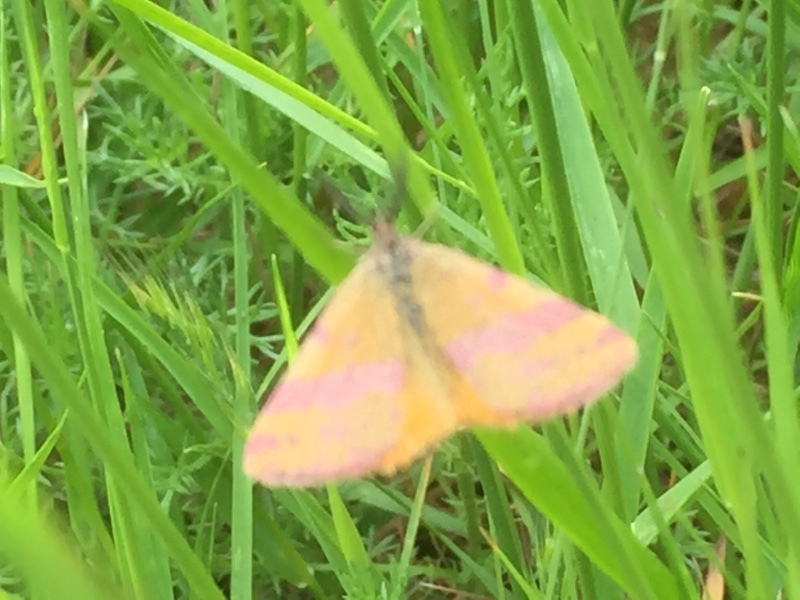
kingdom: Animalia
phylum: Arthropoda
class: Insecta
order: Lepidoptera
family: Geometridae
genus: Lythria
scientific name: Lythria
